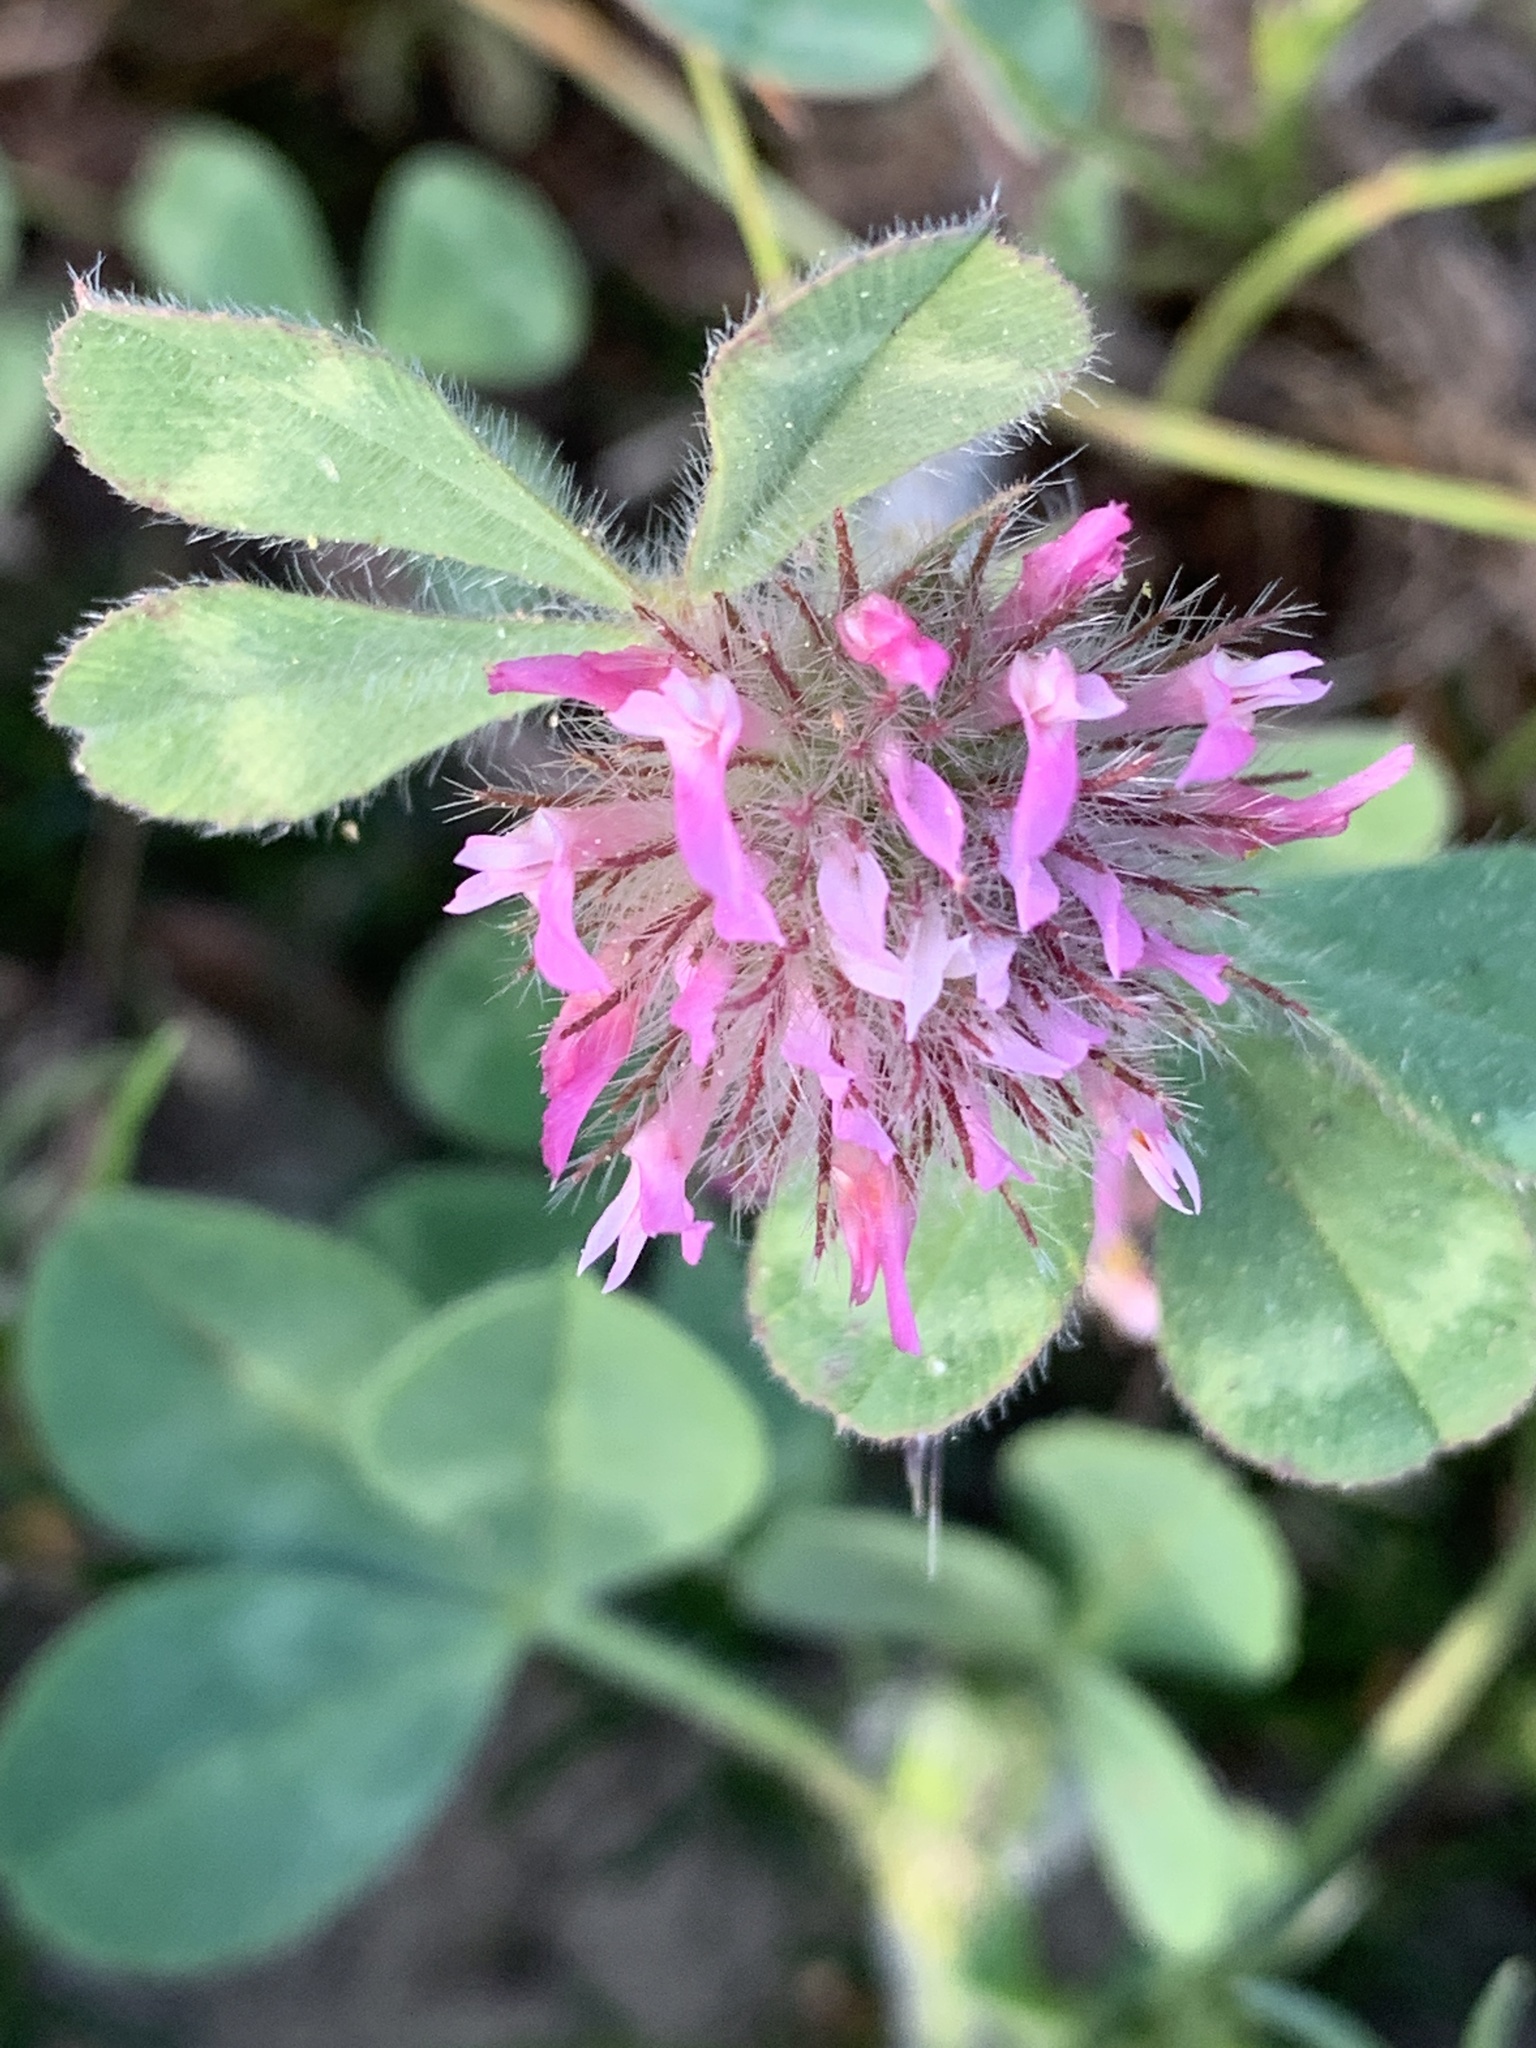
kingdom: Plantae
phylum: Tracheophyta
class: Magnoliopsida
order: Fabales
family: Fabaceae
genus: Trifolium
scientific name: Trifolium hirtum
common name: Rose clover
